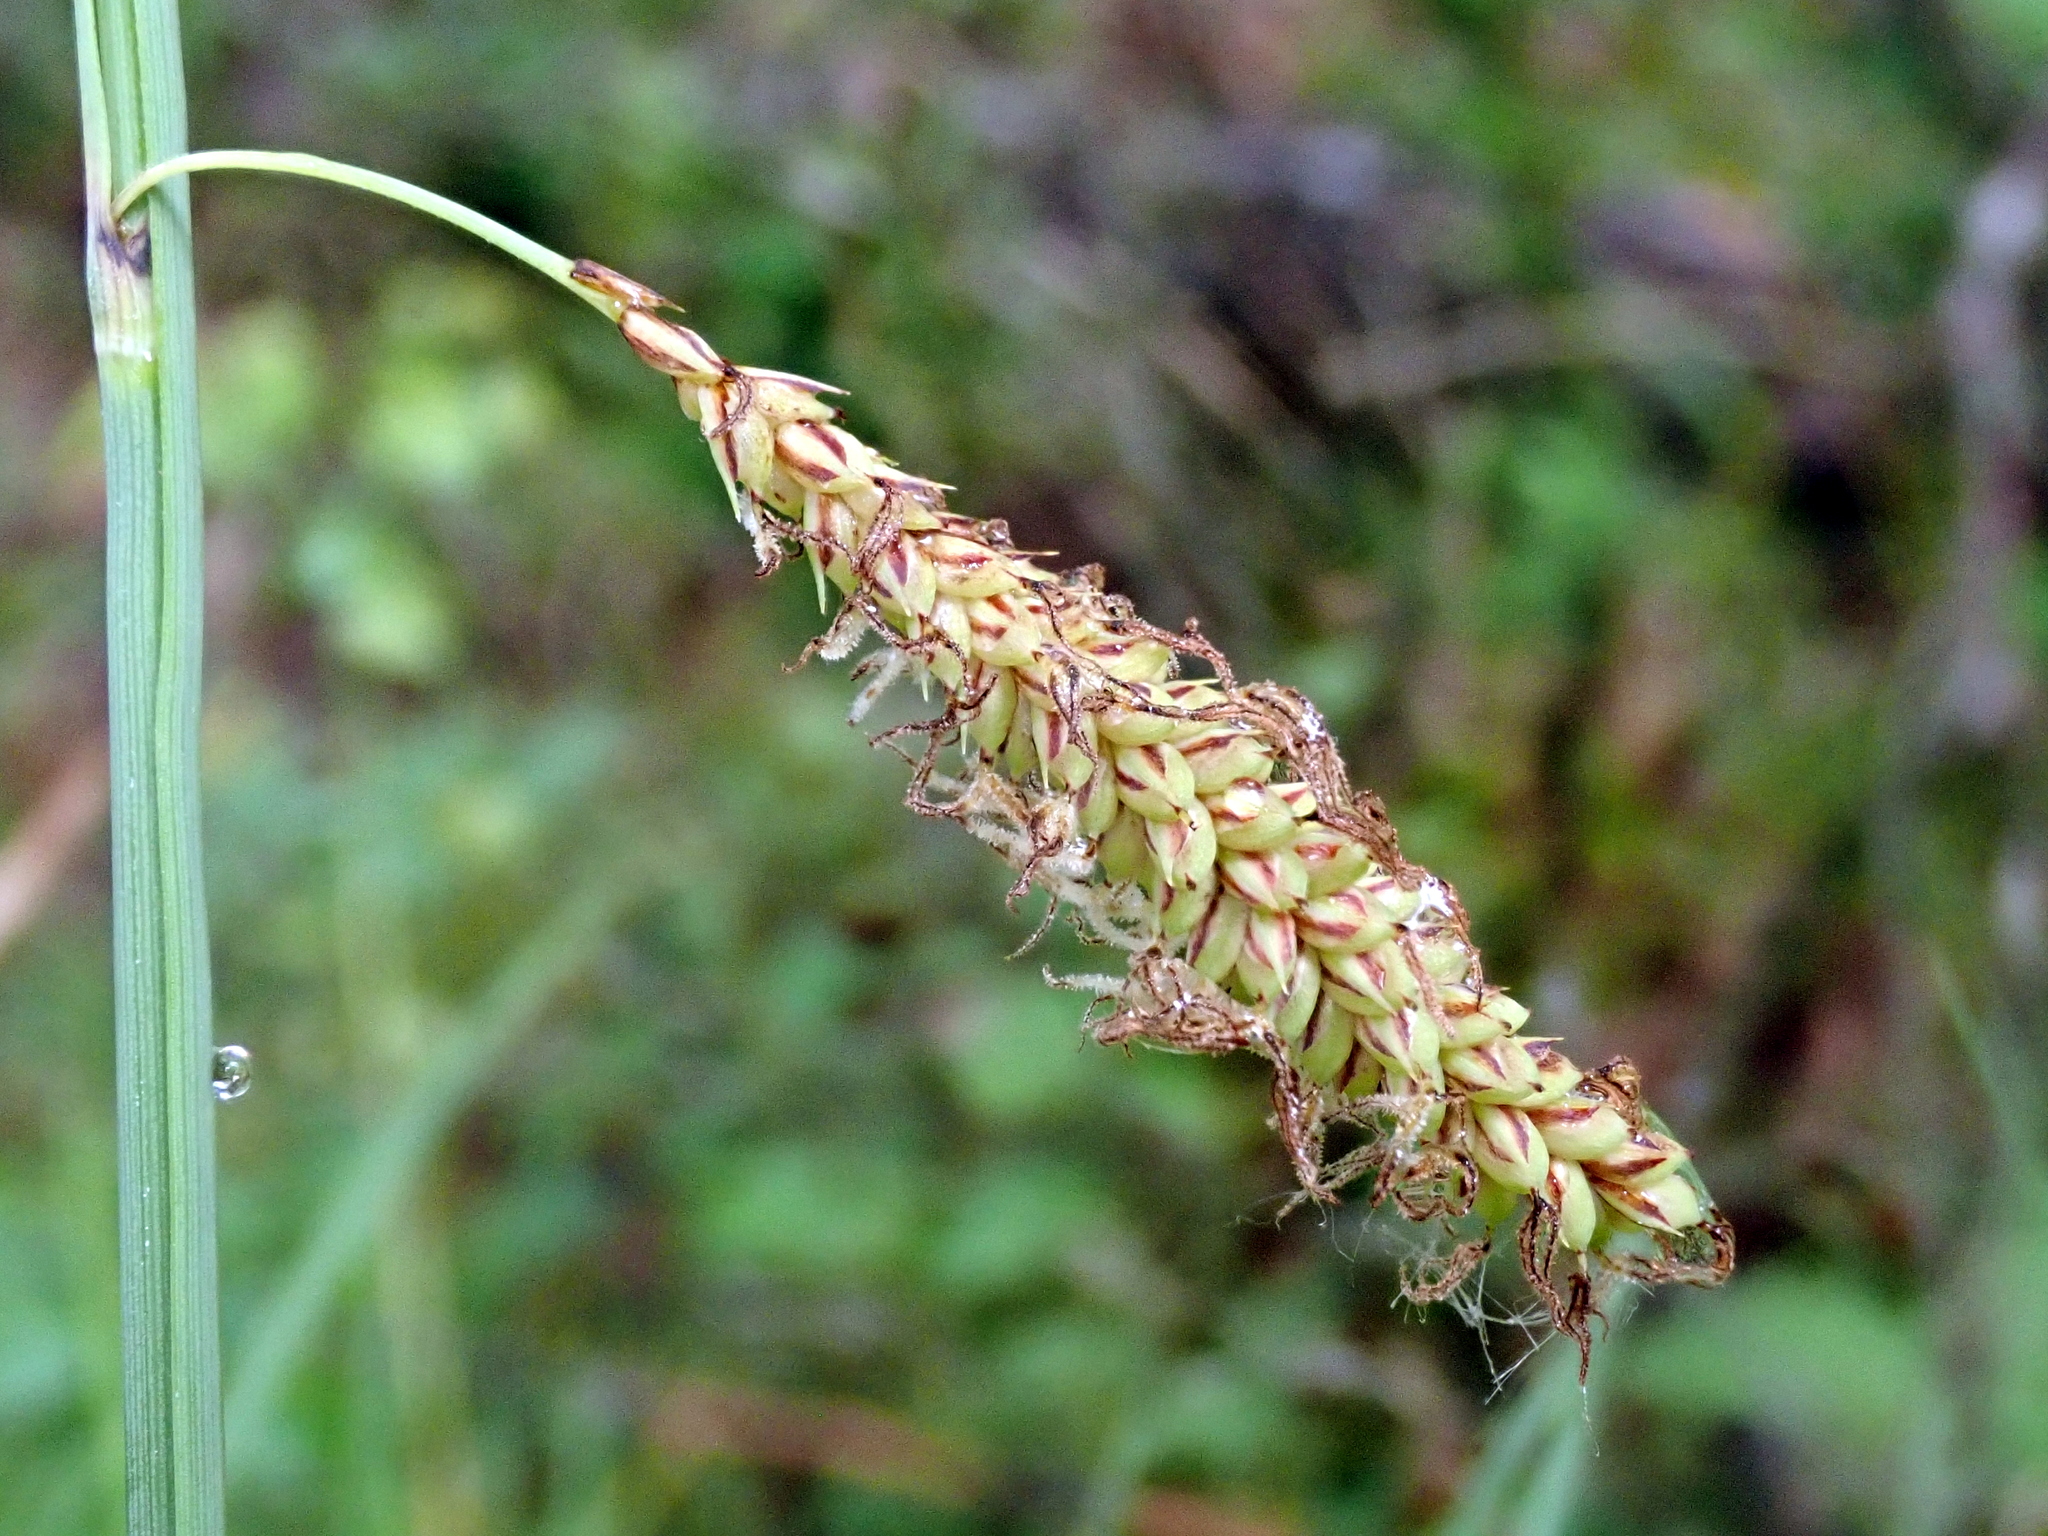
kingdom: Plantae
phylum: Tracheophyta
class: Liliopsida
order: Poales
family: Cyperaceae
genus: Carex
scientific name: Carex flacca
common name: Glaucous sedge
